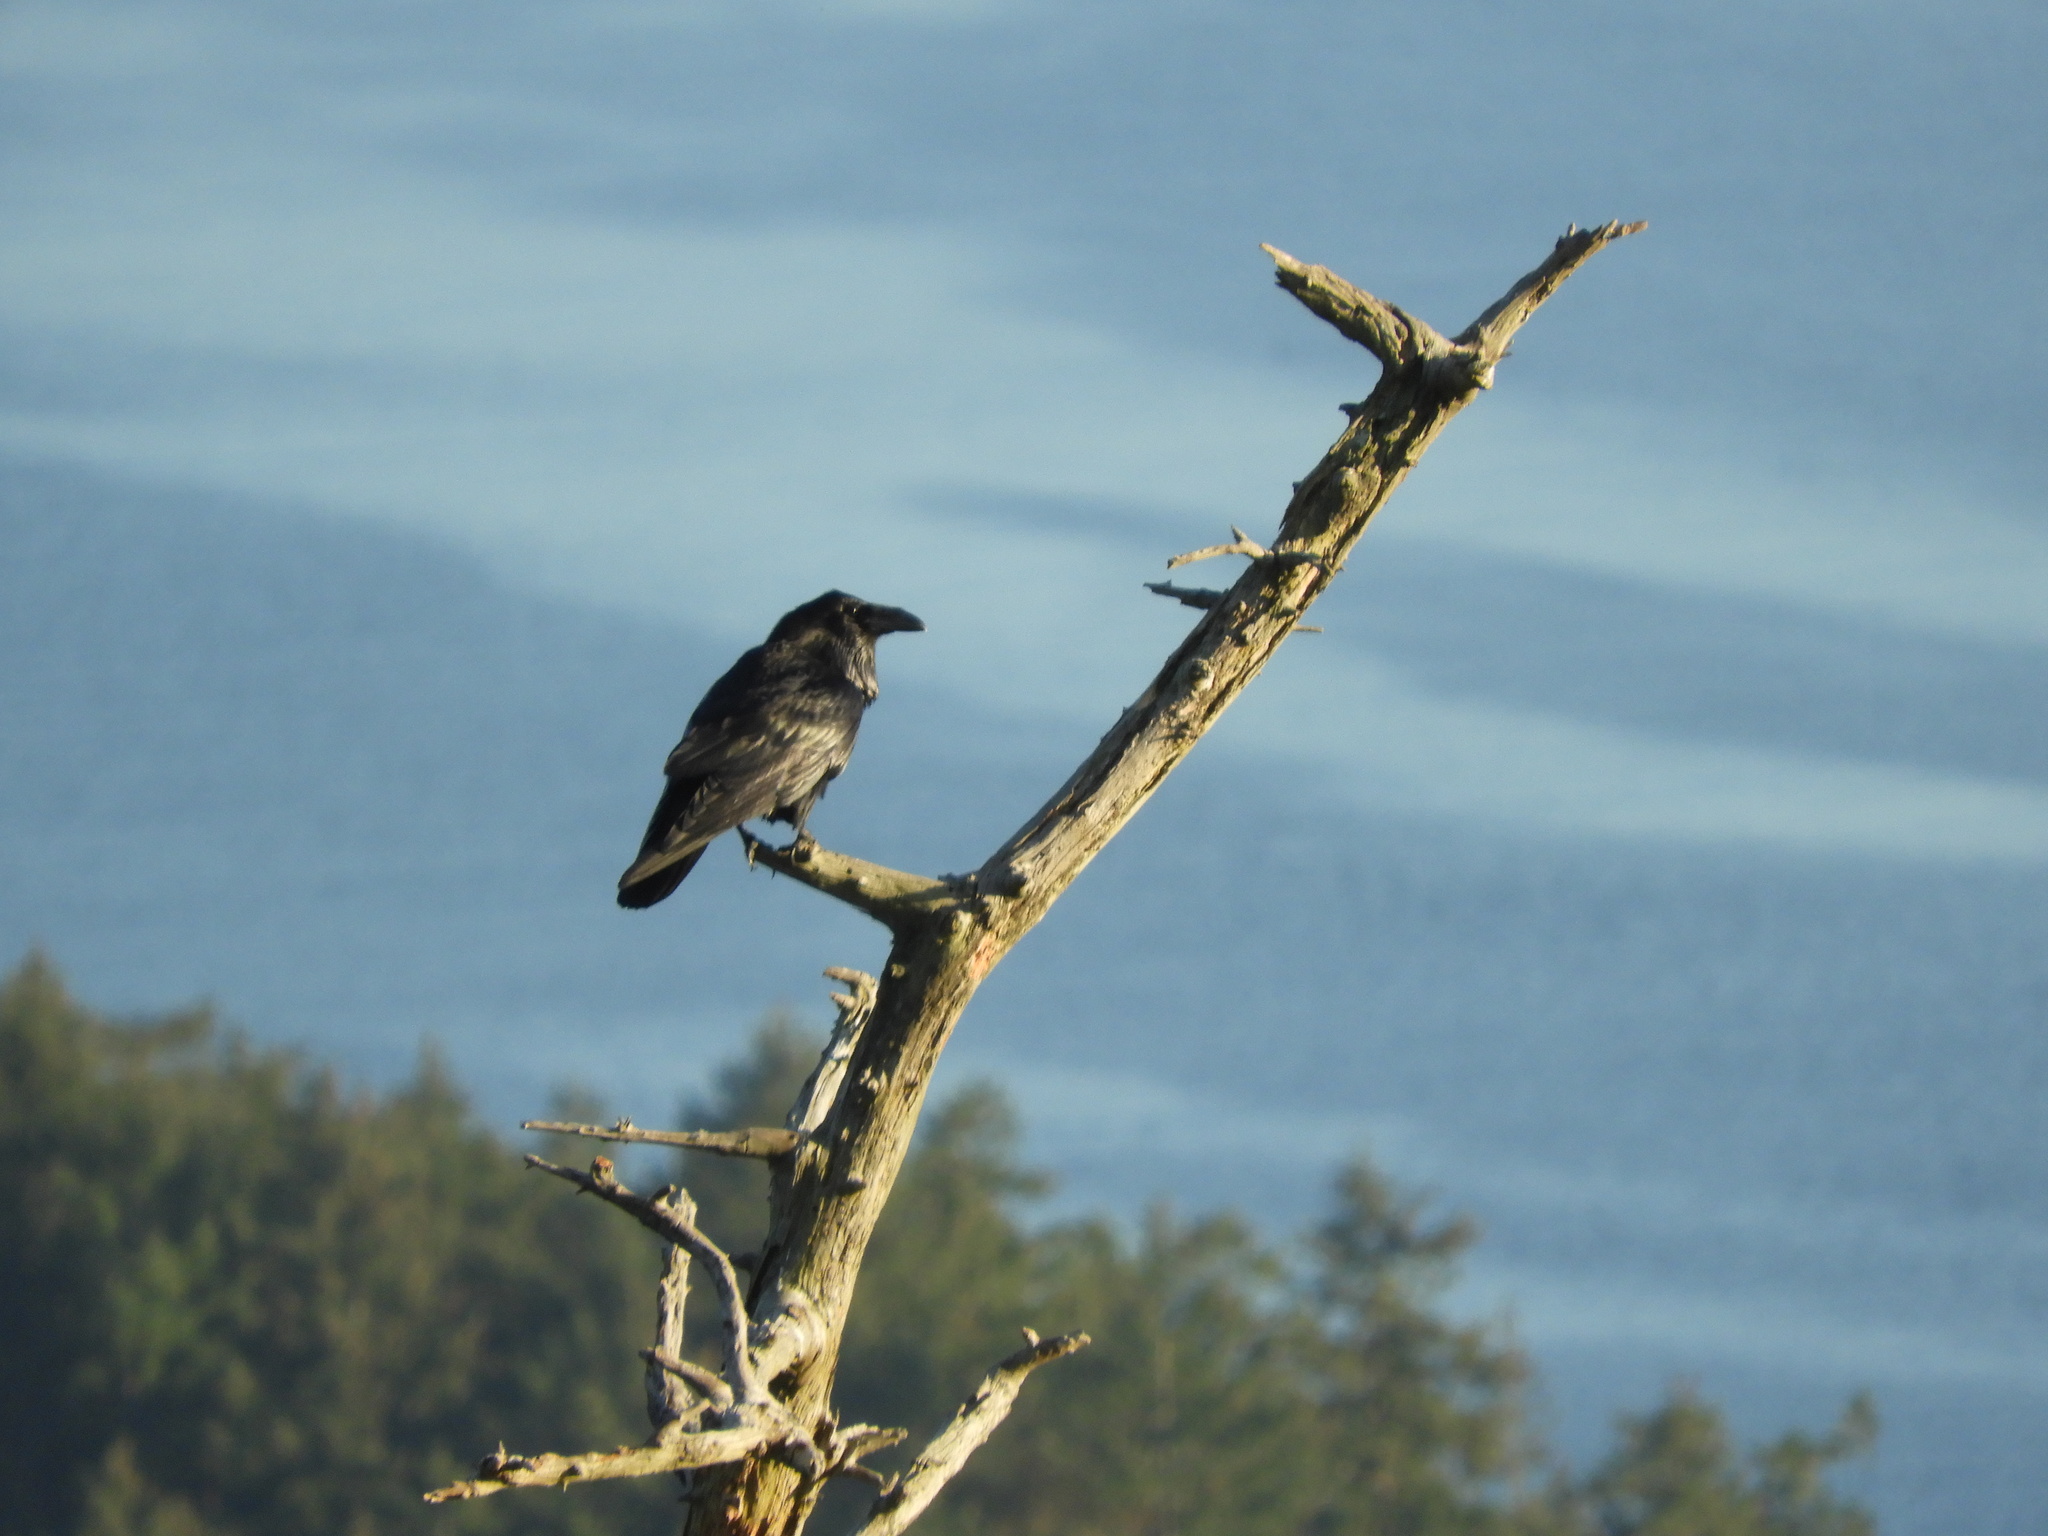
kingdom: Animalia
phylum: Chordata
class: Aves
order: Passeriformes
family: Corvidae
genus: Corvus
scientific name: Corvus corax
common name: Common raven
